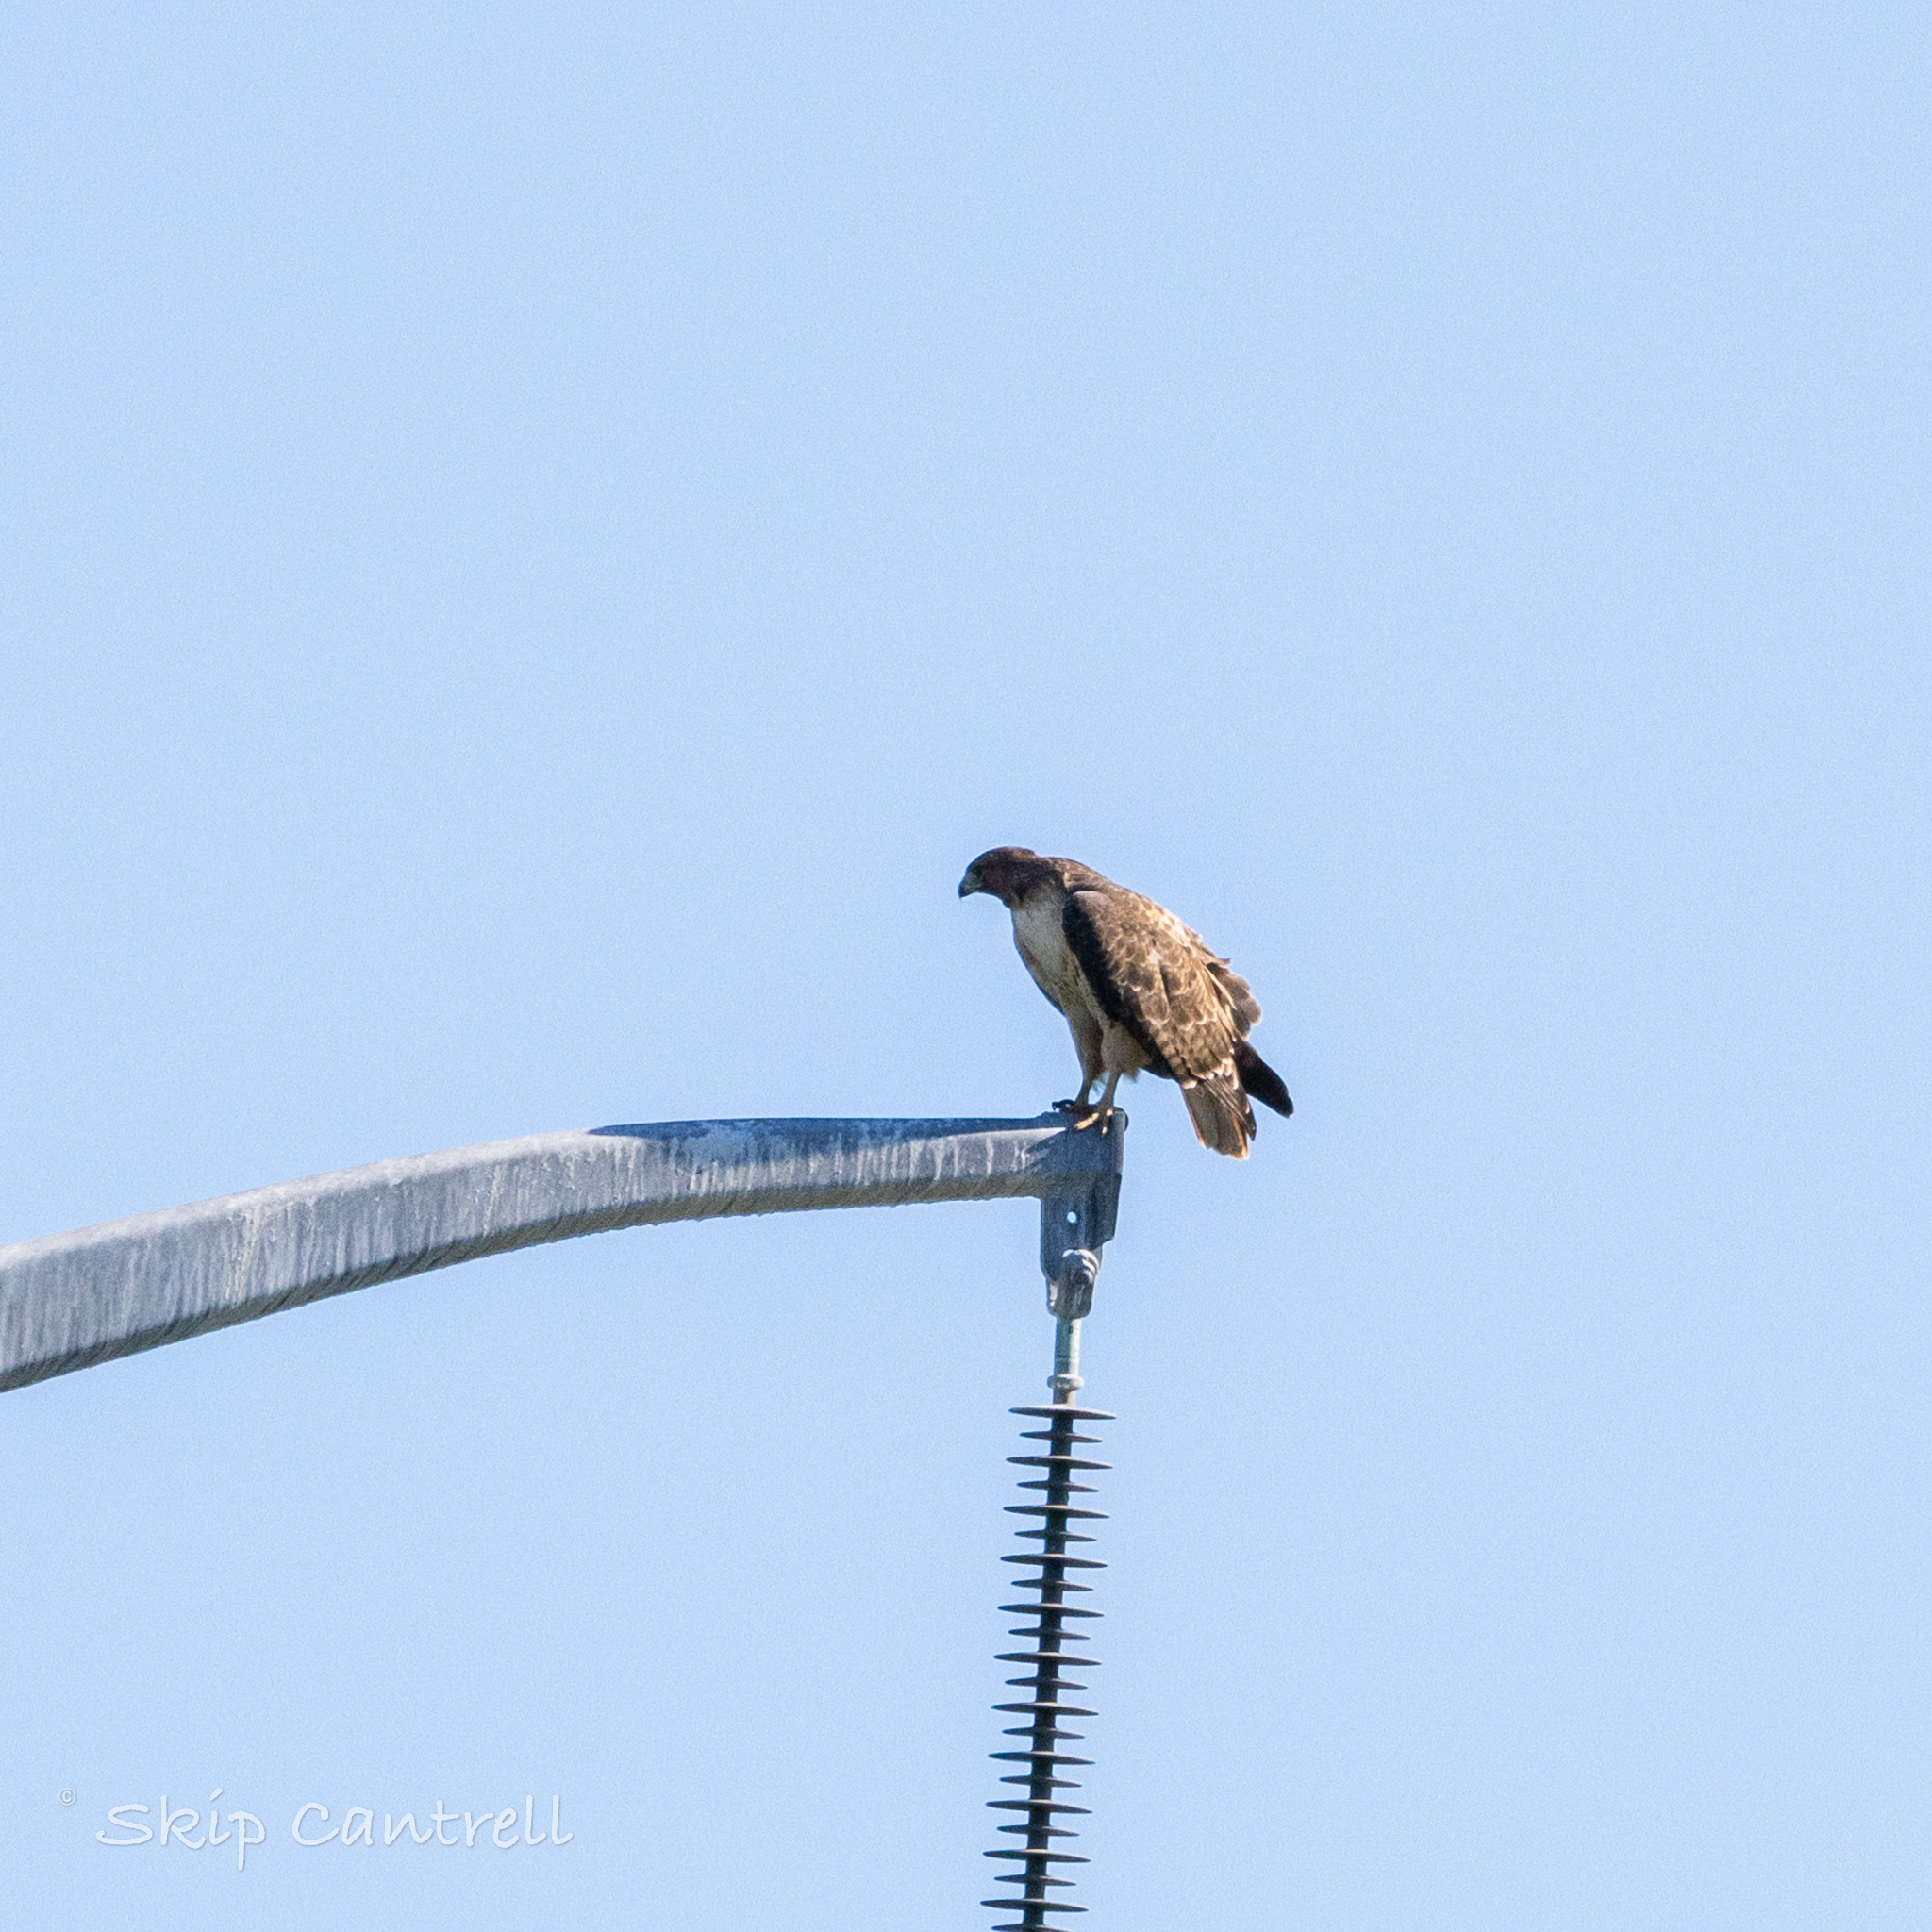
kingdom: Animalia
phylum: Chordata
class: Aves
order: Accipitriformes
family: Accipitridae
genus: Buteo
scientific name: Buteo jamaicensis
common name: Red-tailed hawk
